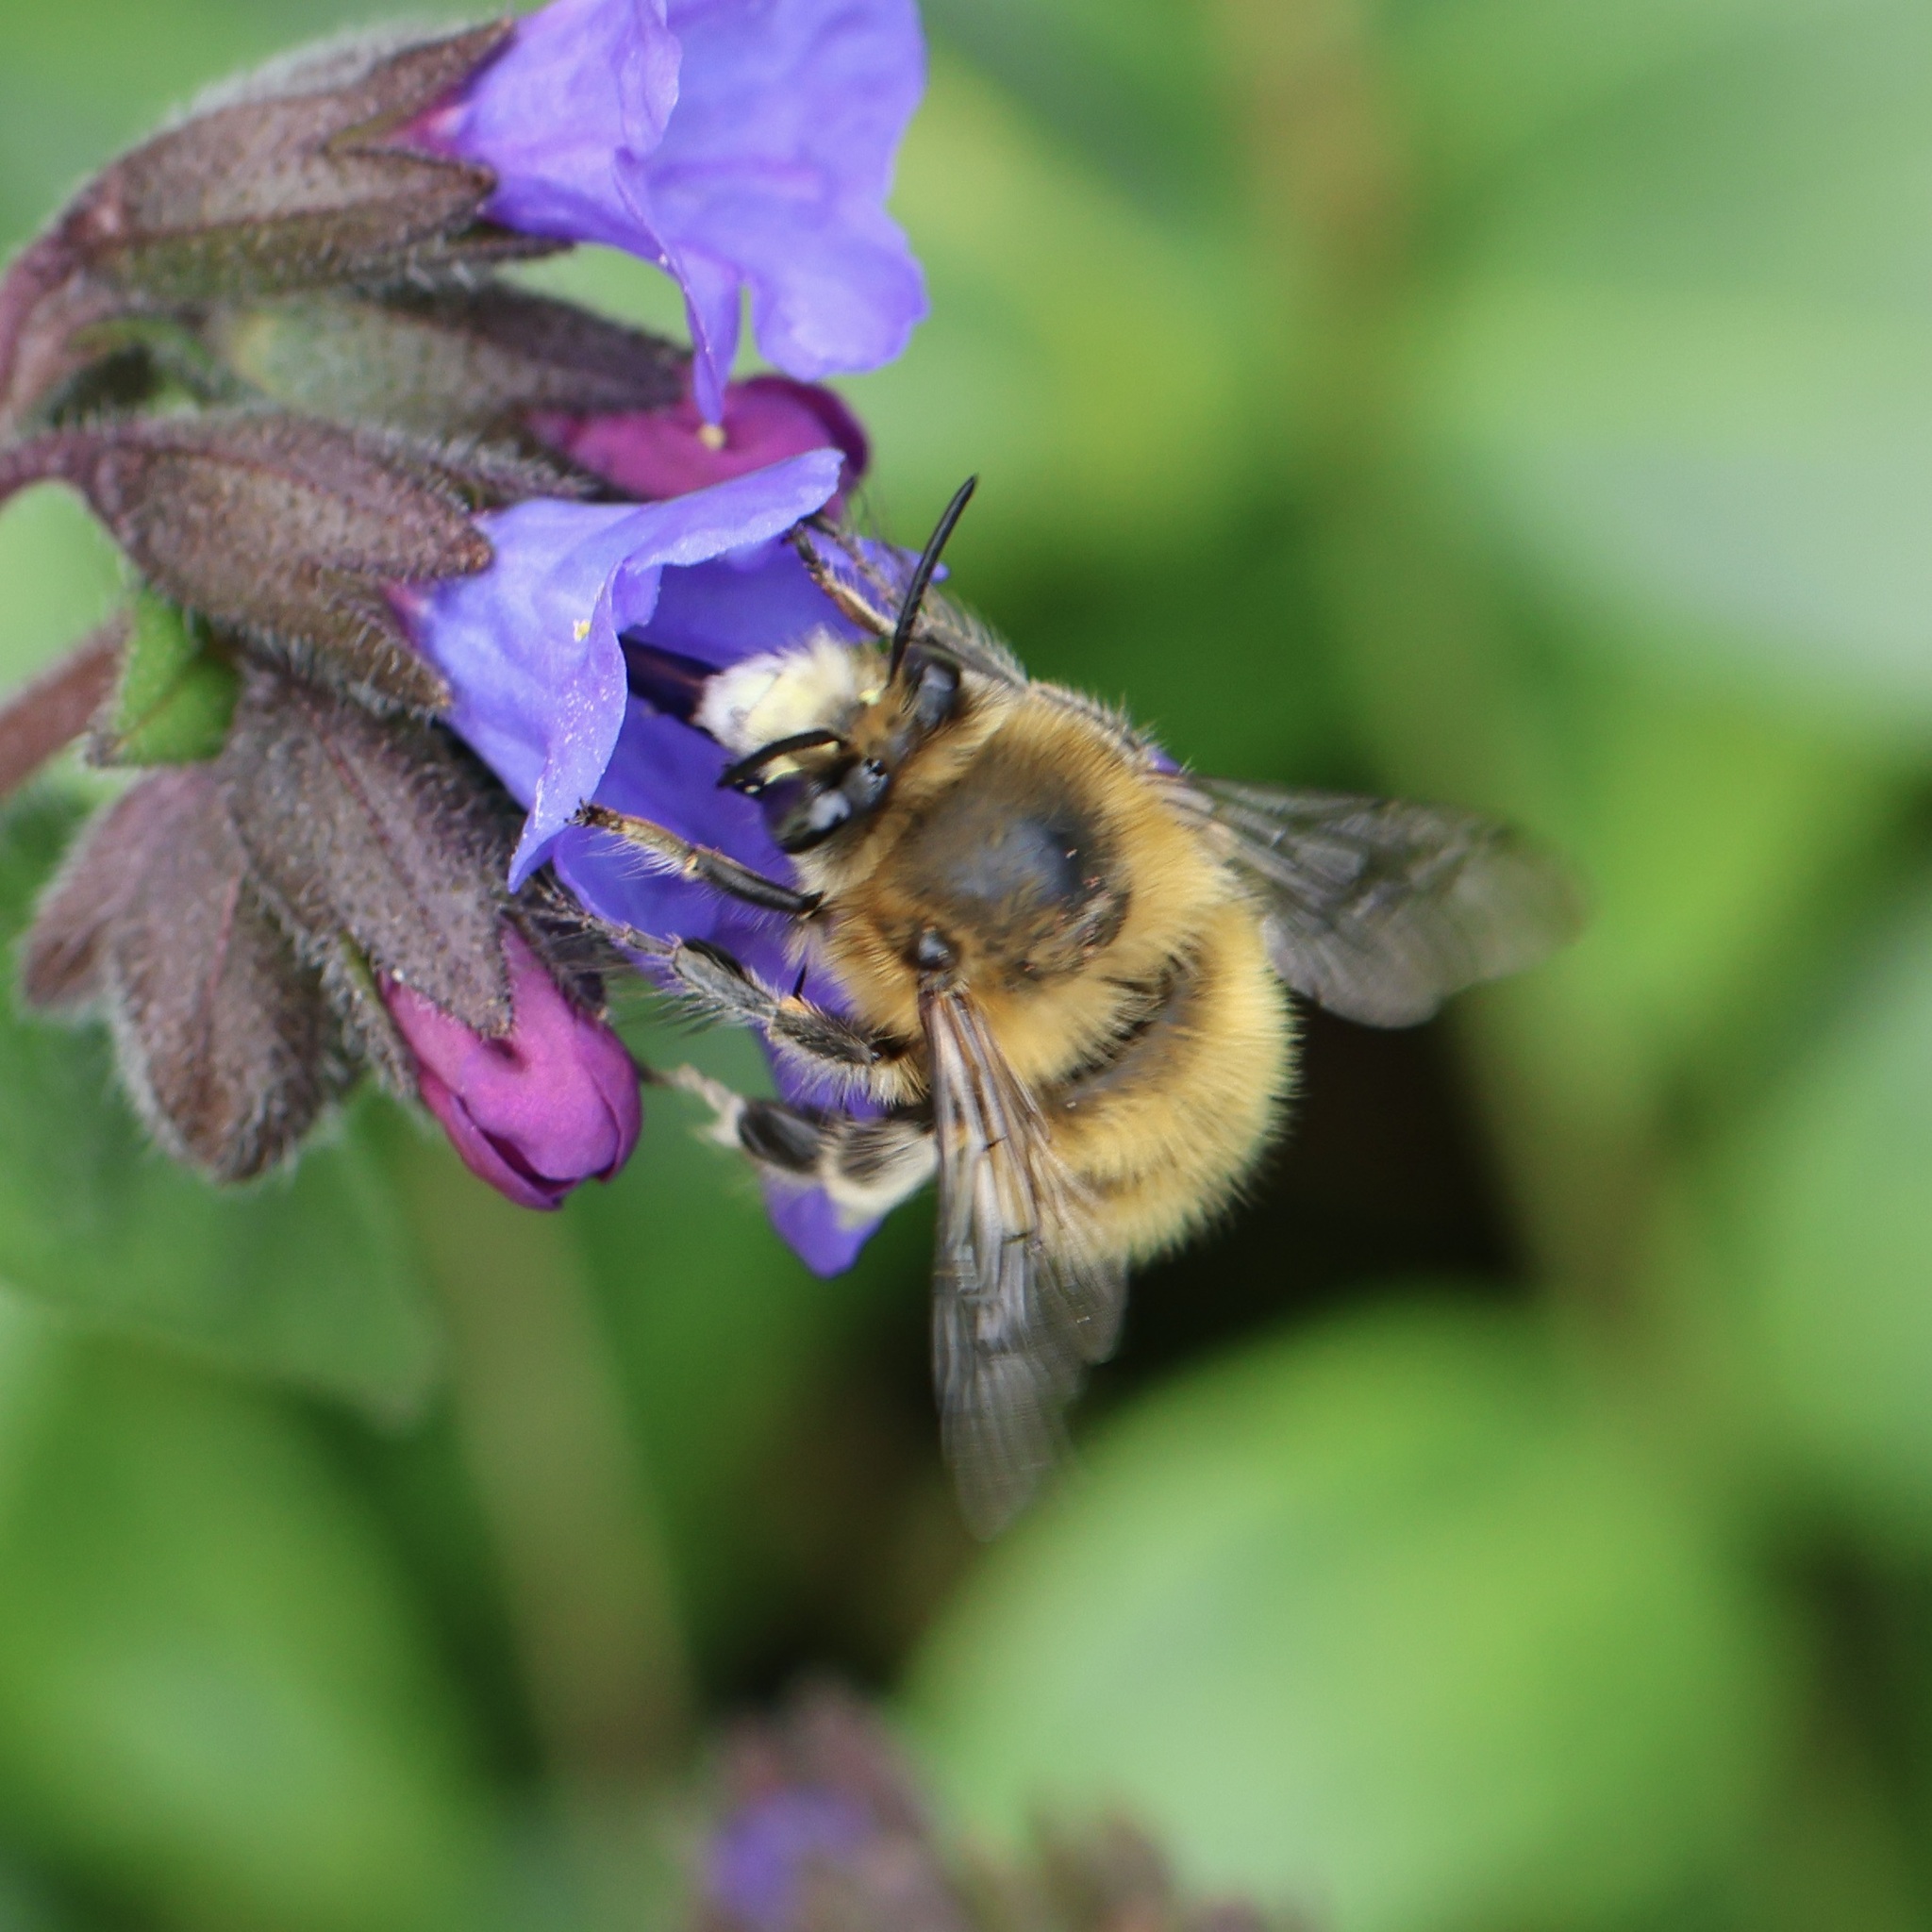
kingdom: Animalia
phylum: Arthropoda
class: Insecta
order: Hymenoptera
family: Apidae
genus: Anthophora
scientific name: Anthophora plumipes
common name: Hairy-footed flower bee
